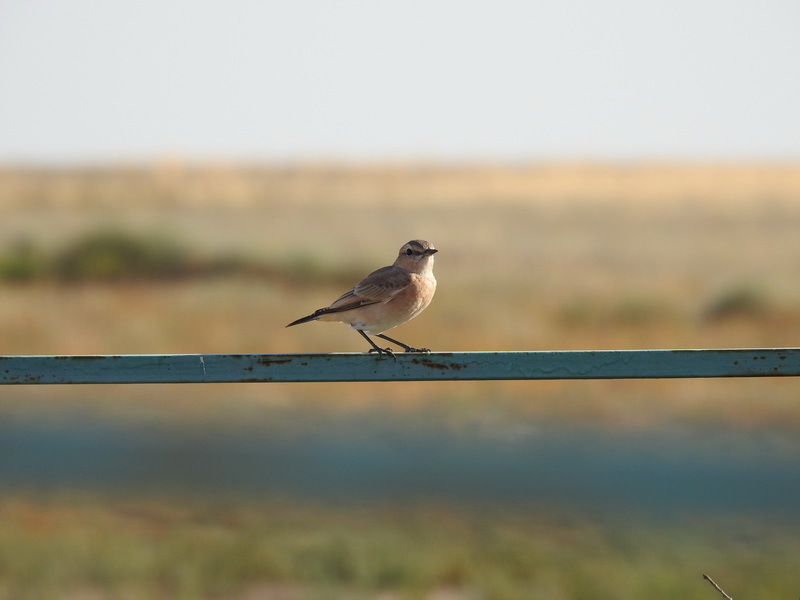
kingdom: Animalia
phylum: Chordata
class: Aves
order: Passeriformes
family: Muscicapidae
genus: Oenanthe
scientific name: Oenanthe oenanthe
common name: Northern wheatear
